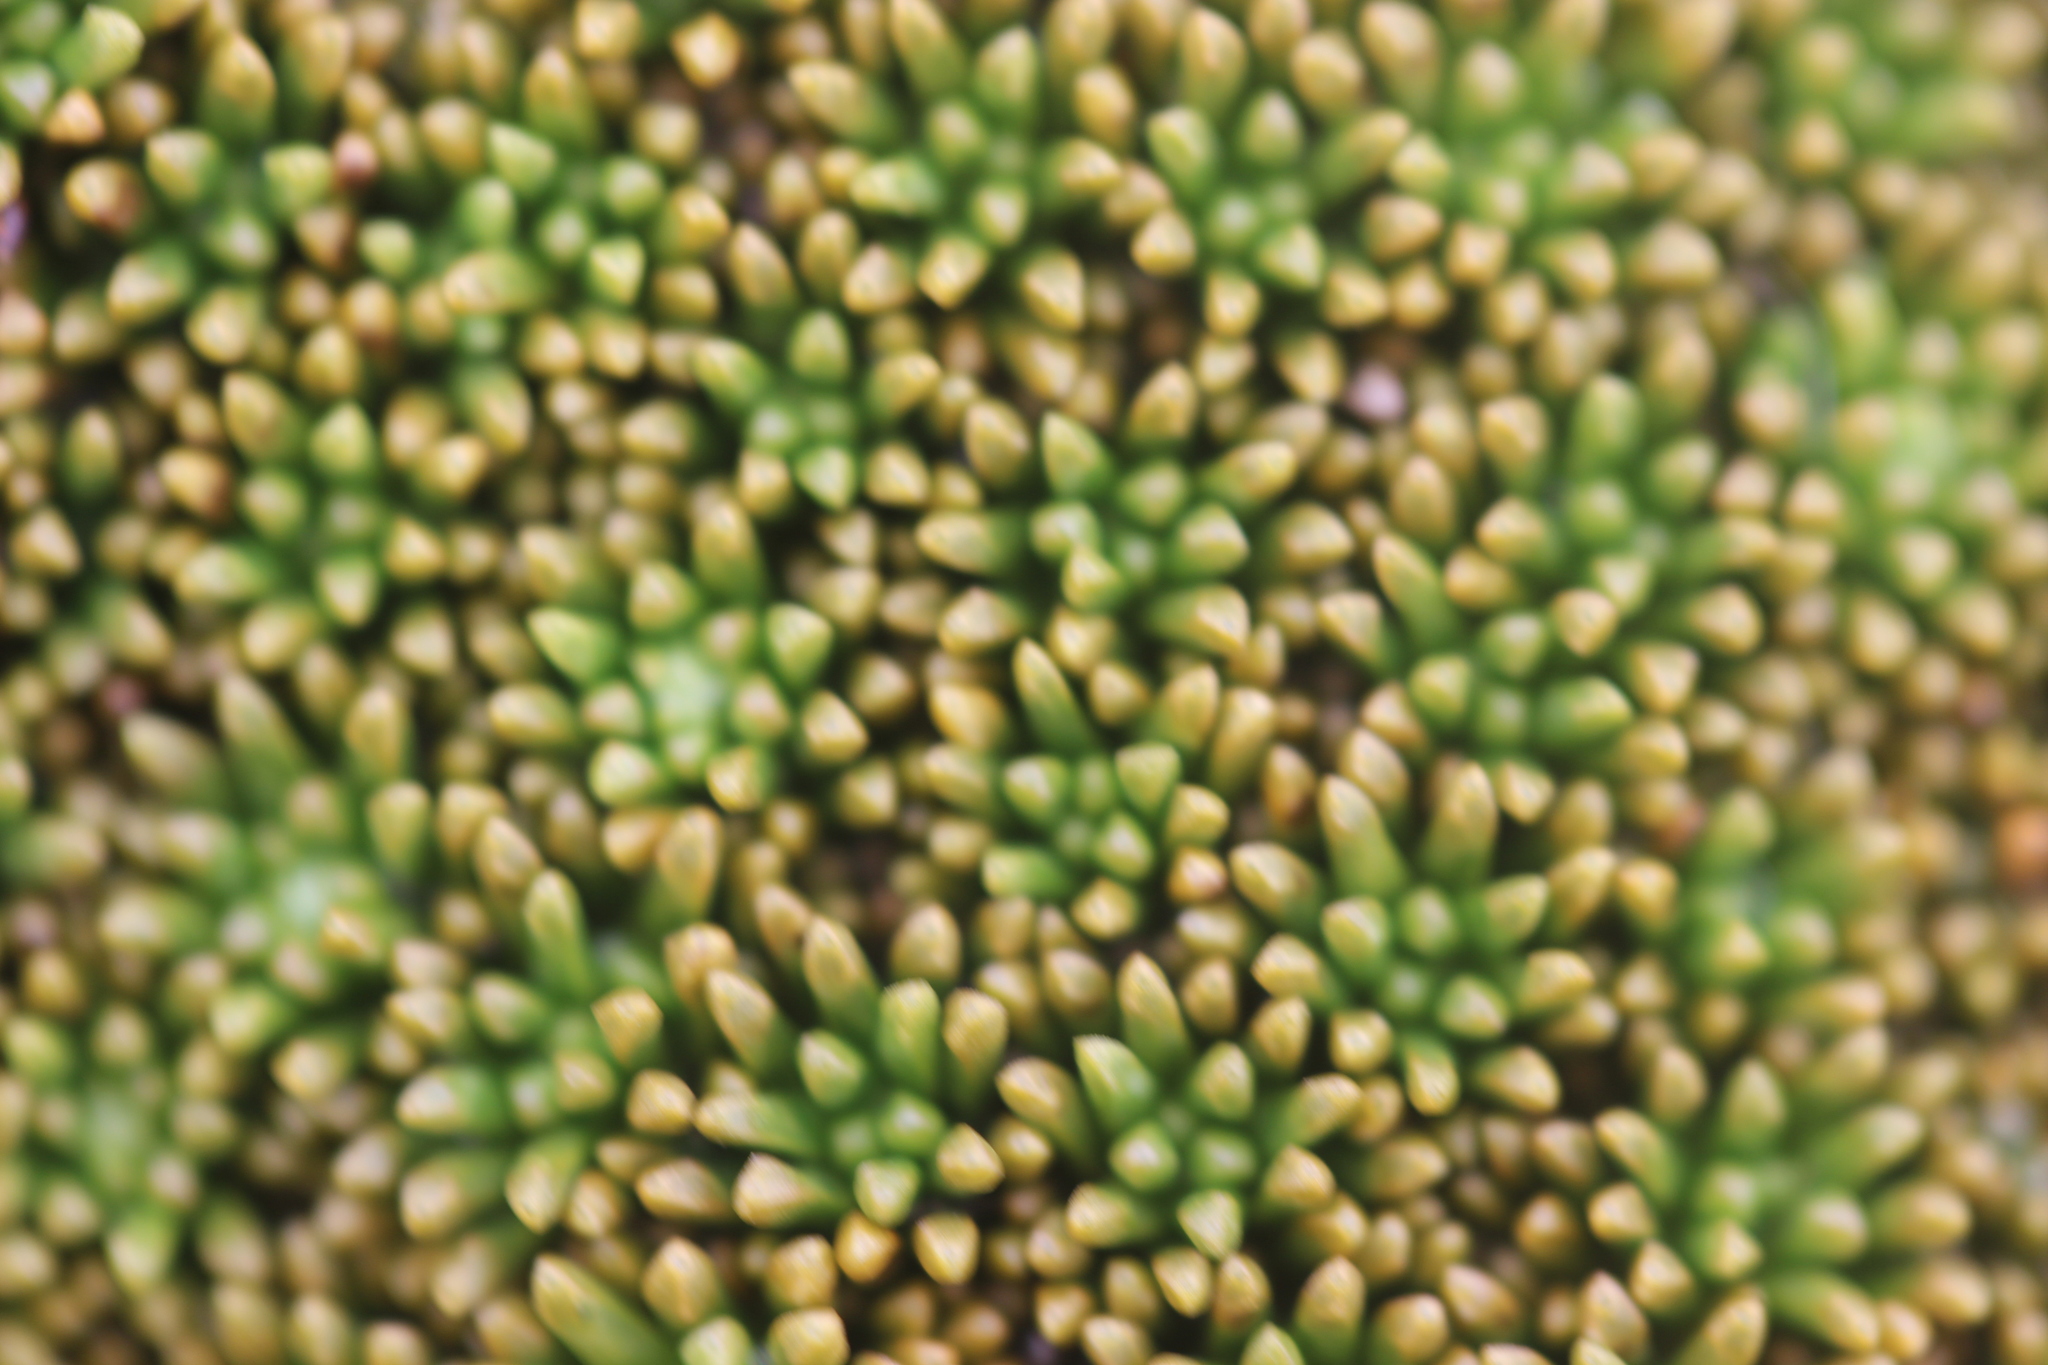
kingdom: Plantae
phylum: Tracheophyta
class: Magnoliopsida
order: Asterales
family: Stylidiaceae
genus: Phyllachne
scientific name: Phyllachne colensoi
